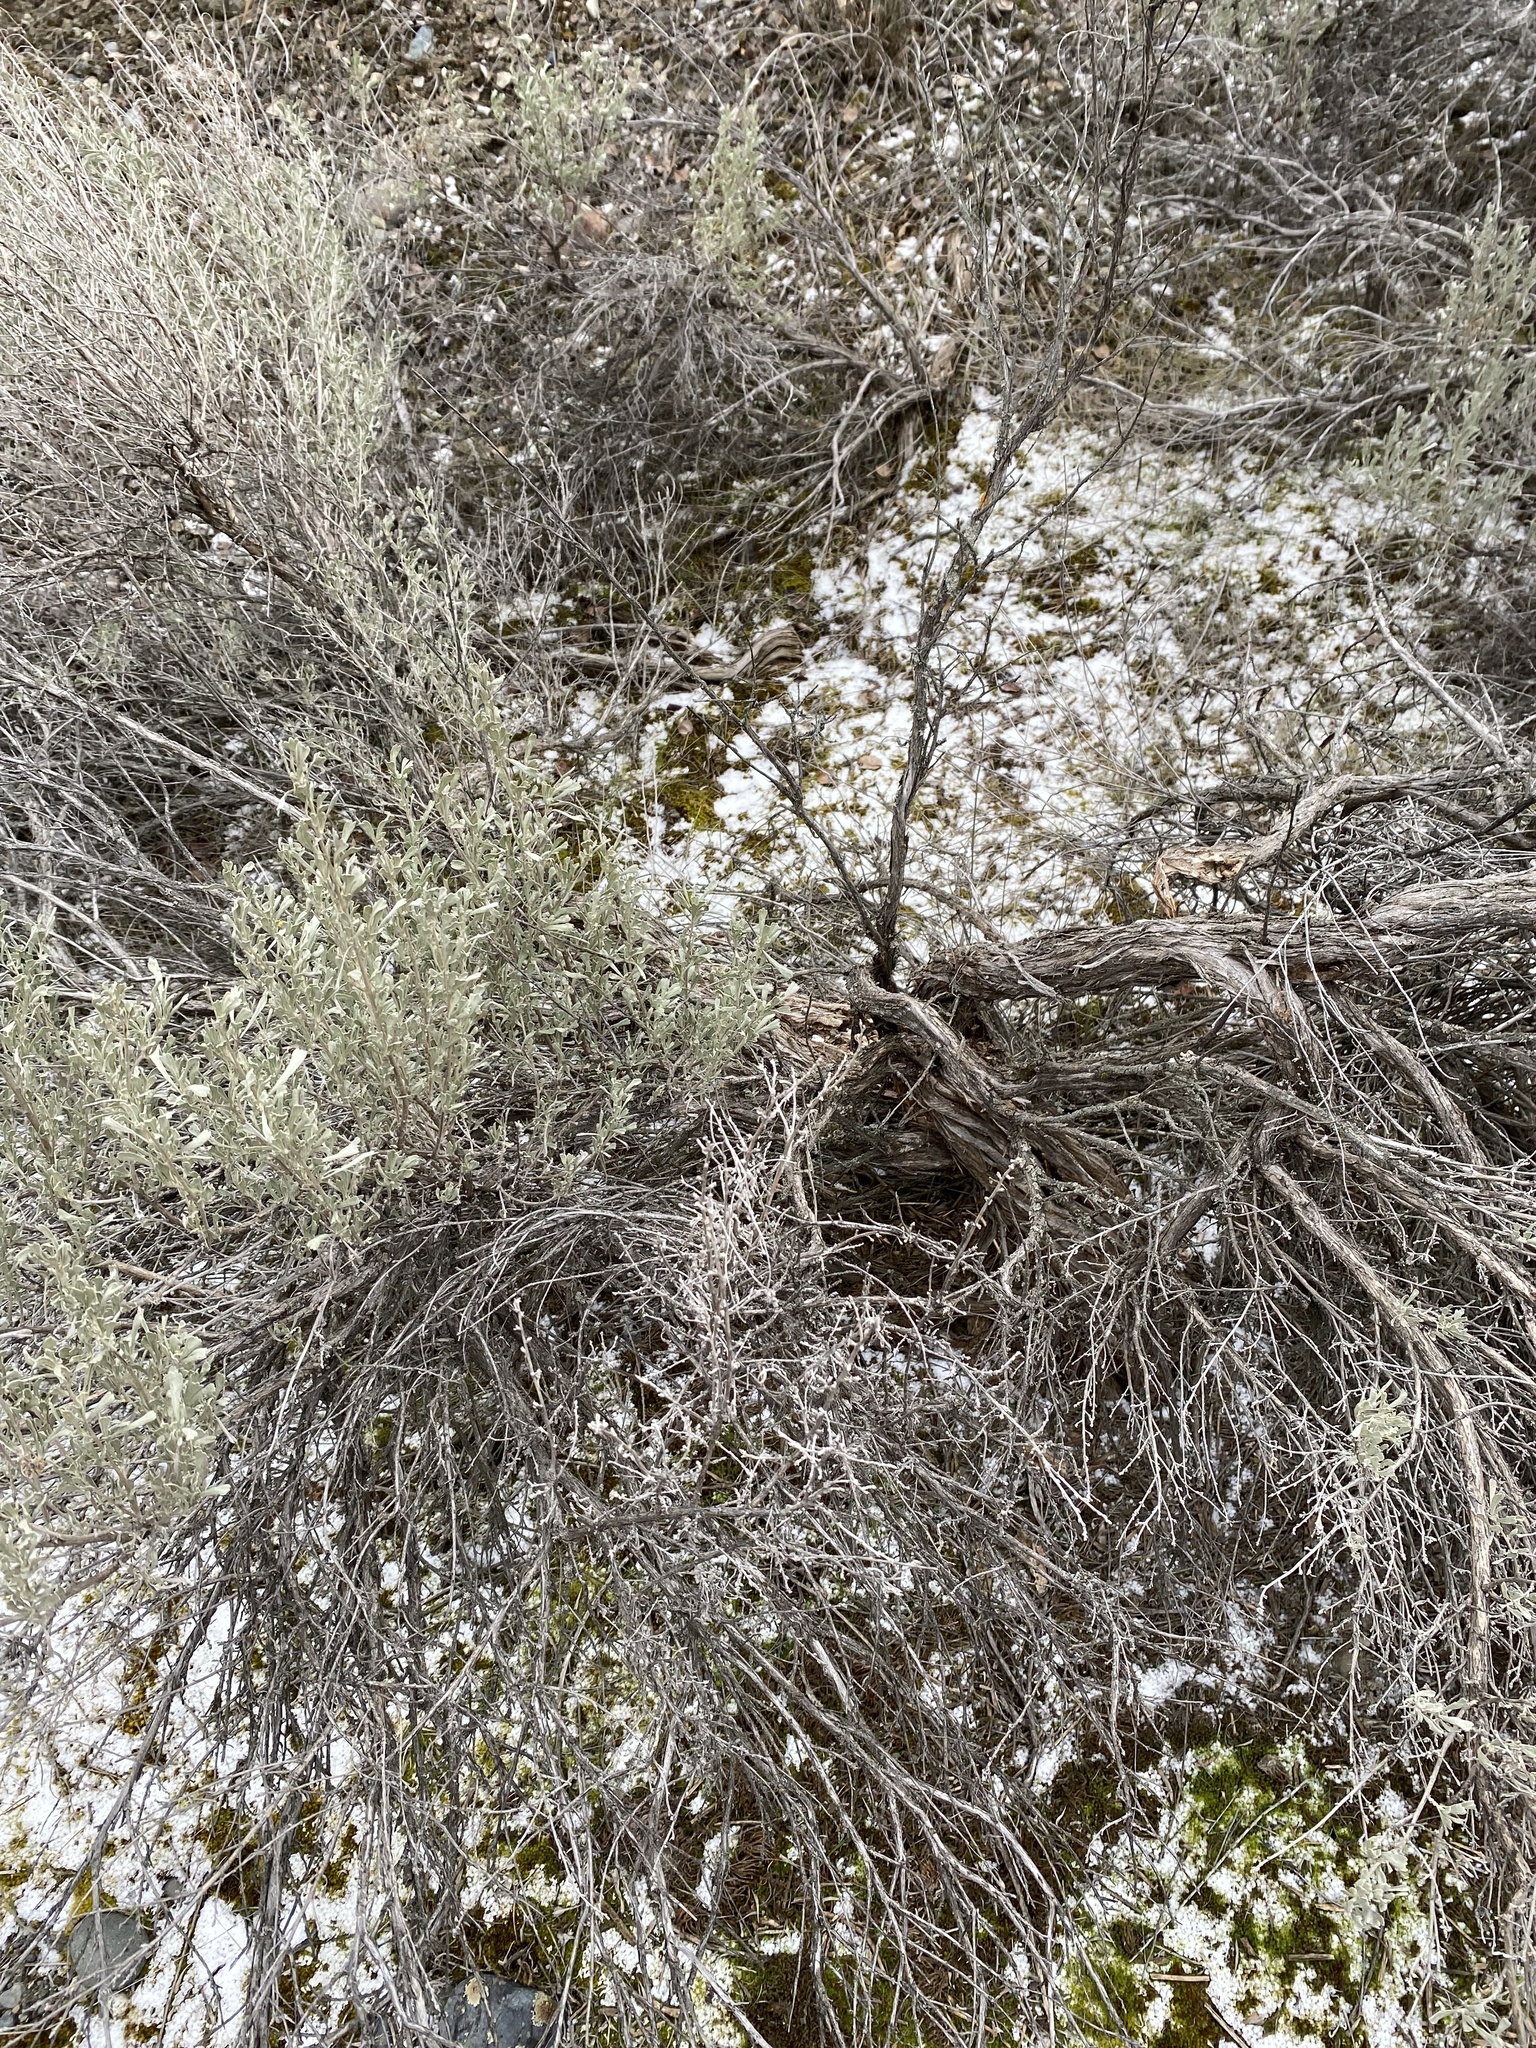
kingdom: Plantae
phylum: Tracheophyta
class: Magnoliopsida
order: Asterales
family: Asteraceae
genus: Artemisia
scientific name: Artemisia tridentata
